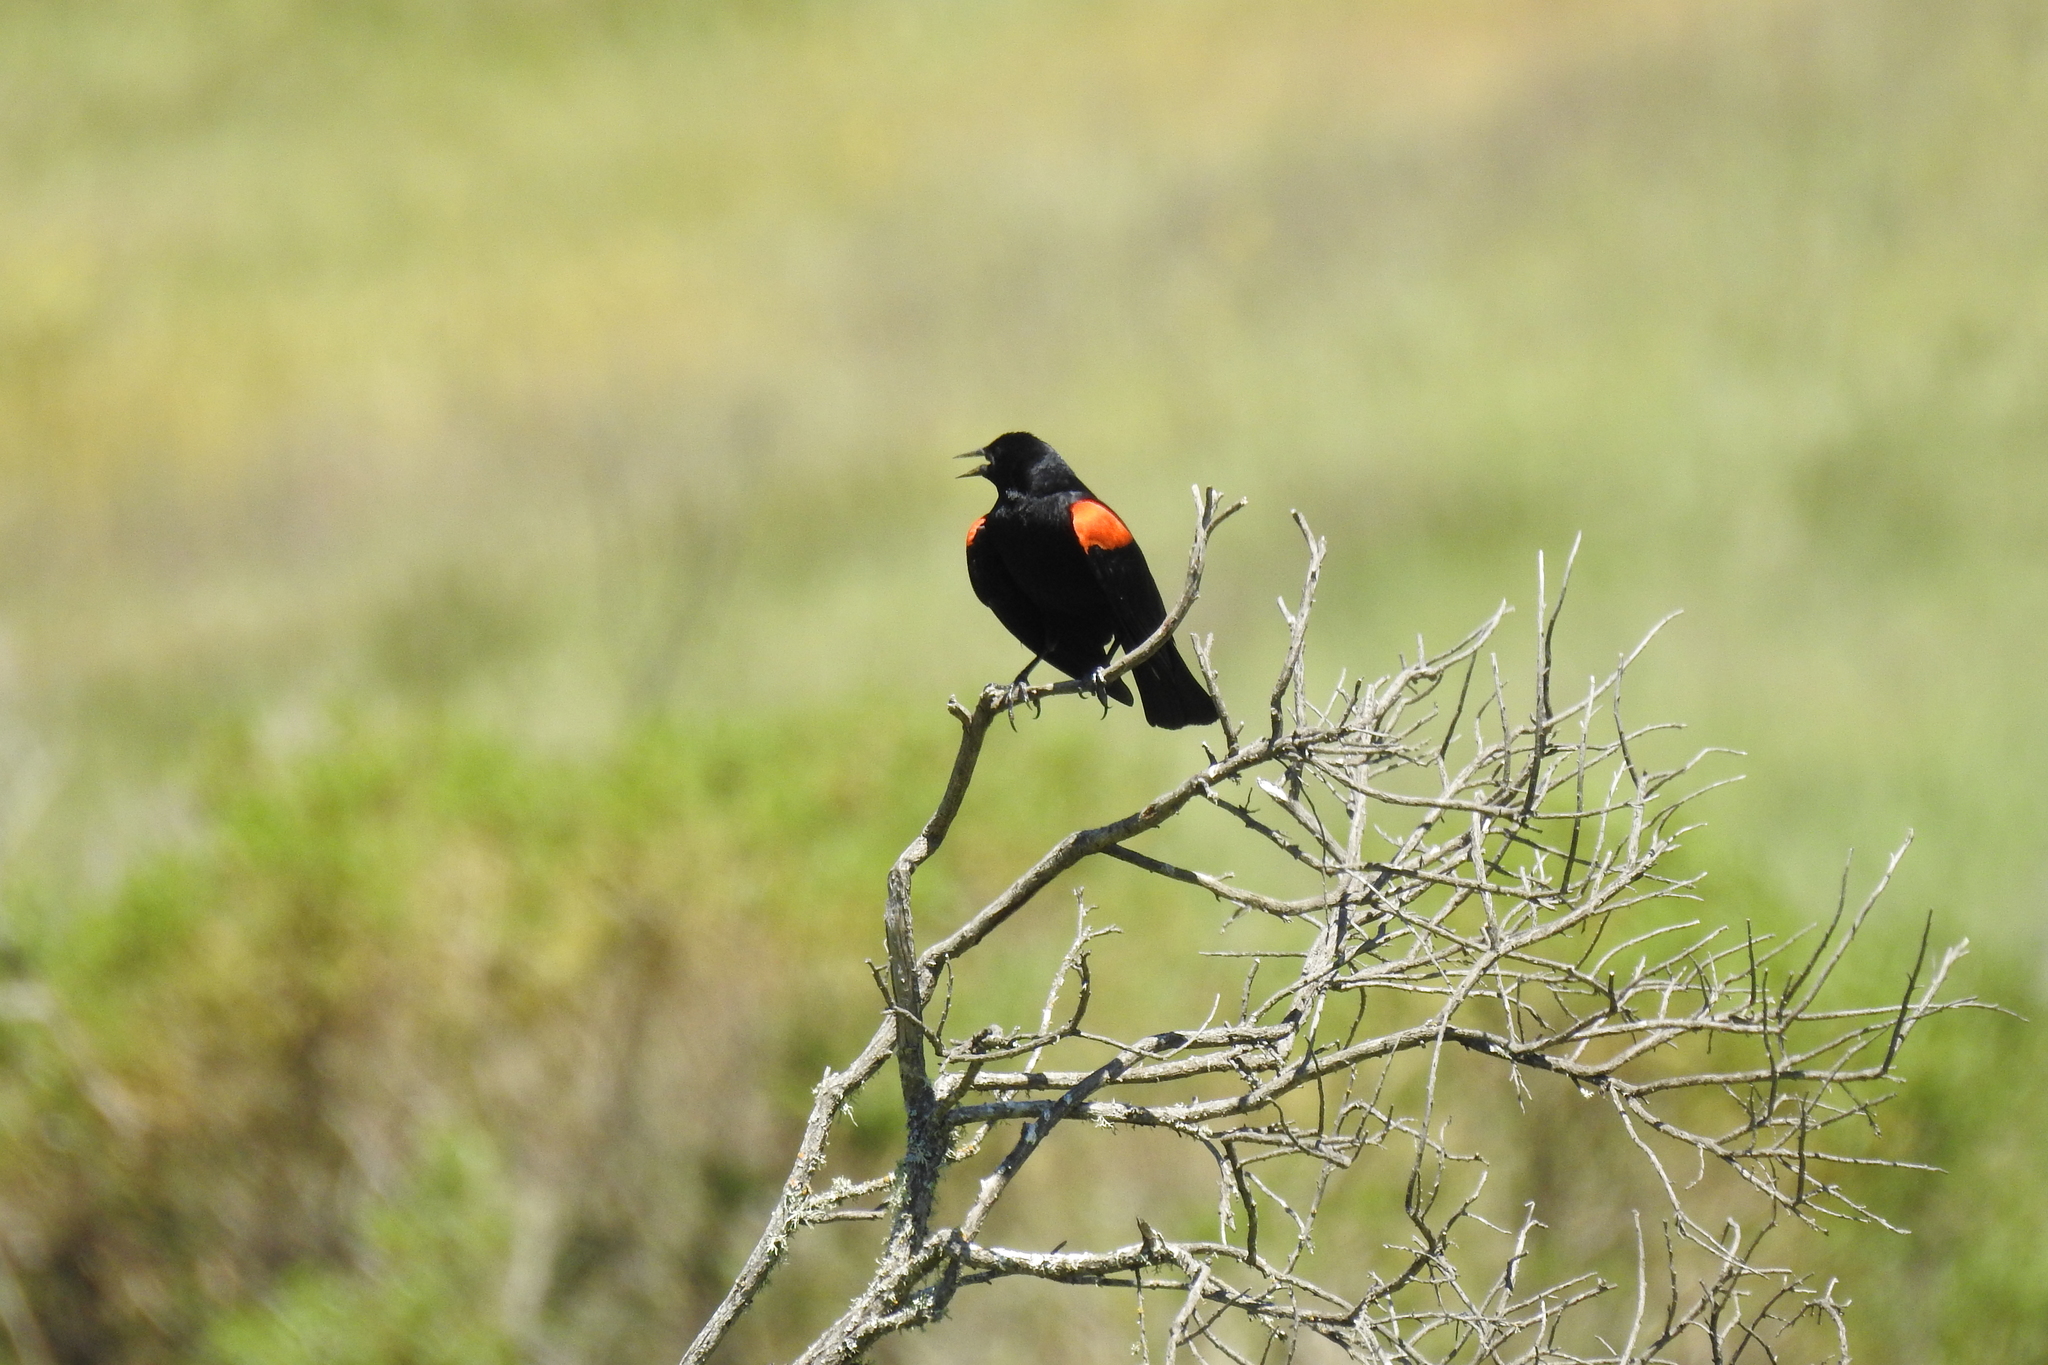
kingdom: Animalia
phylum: Chordata
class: Aves
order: Passeriformes
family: Icteridae
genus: Agelaius
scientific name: Agelaius phoeniceus
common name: Red-winged blackbird
